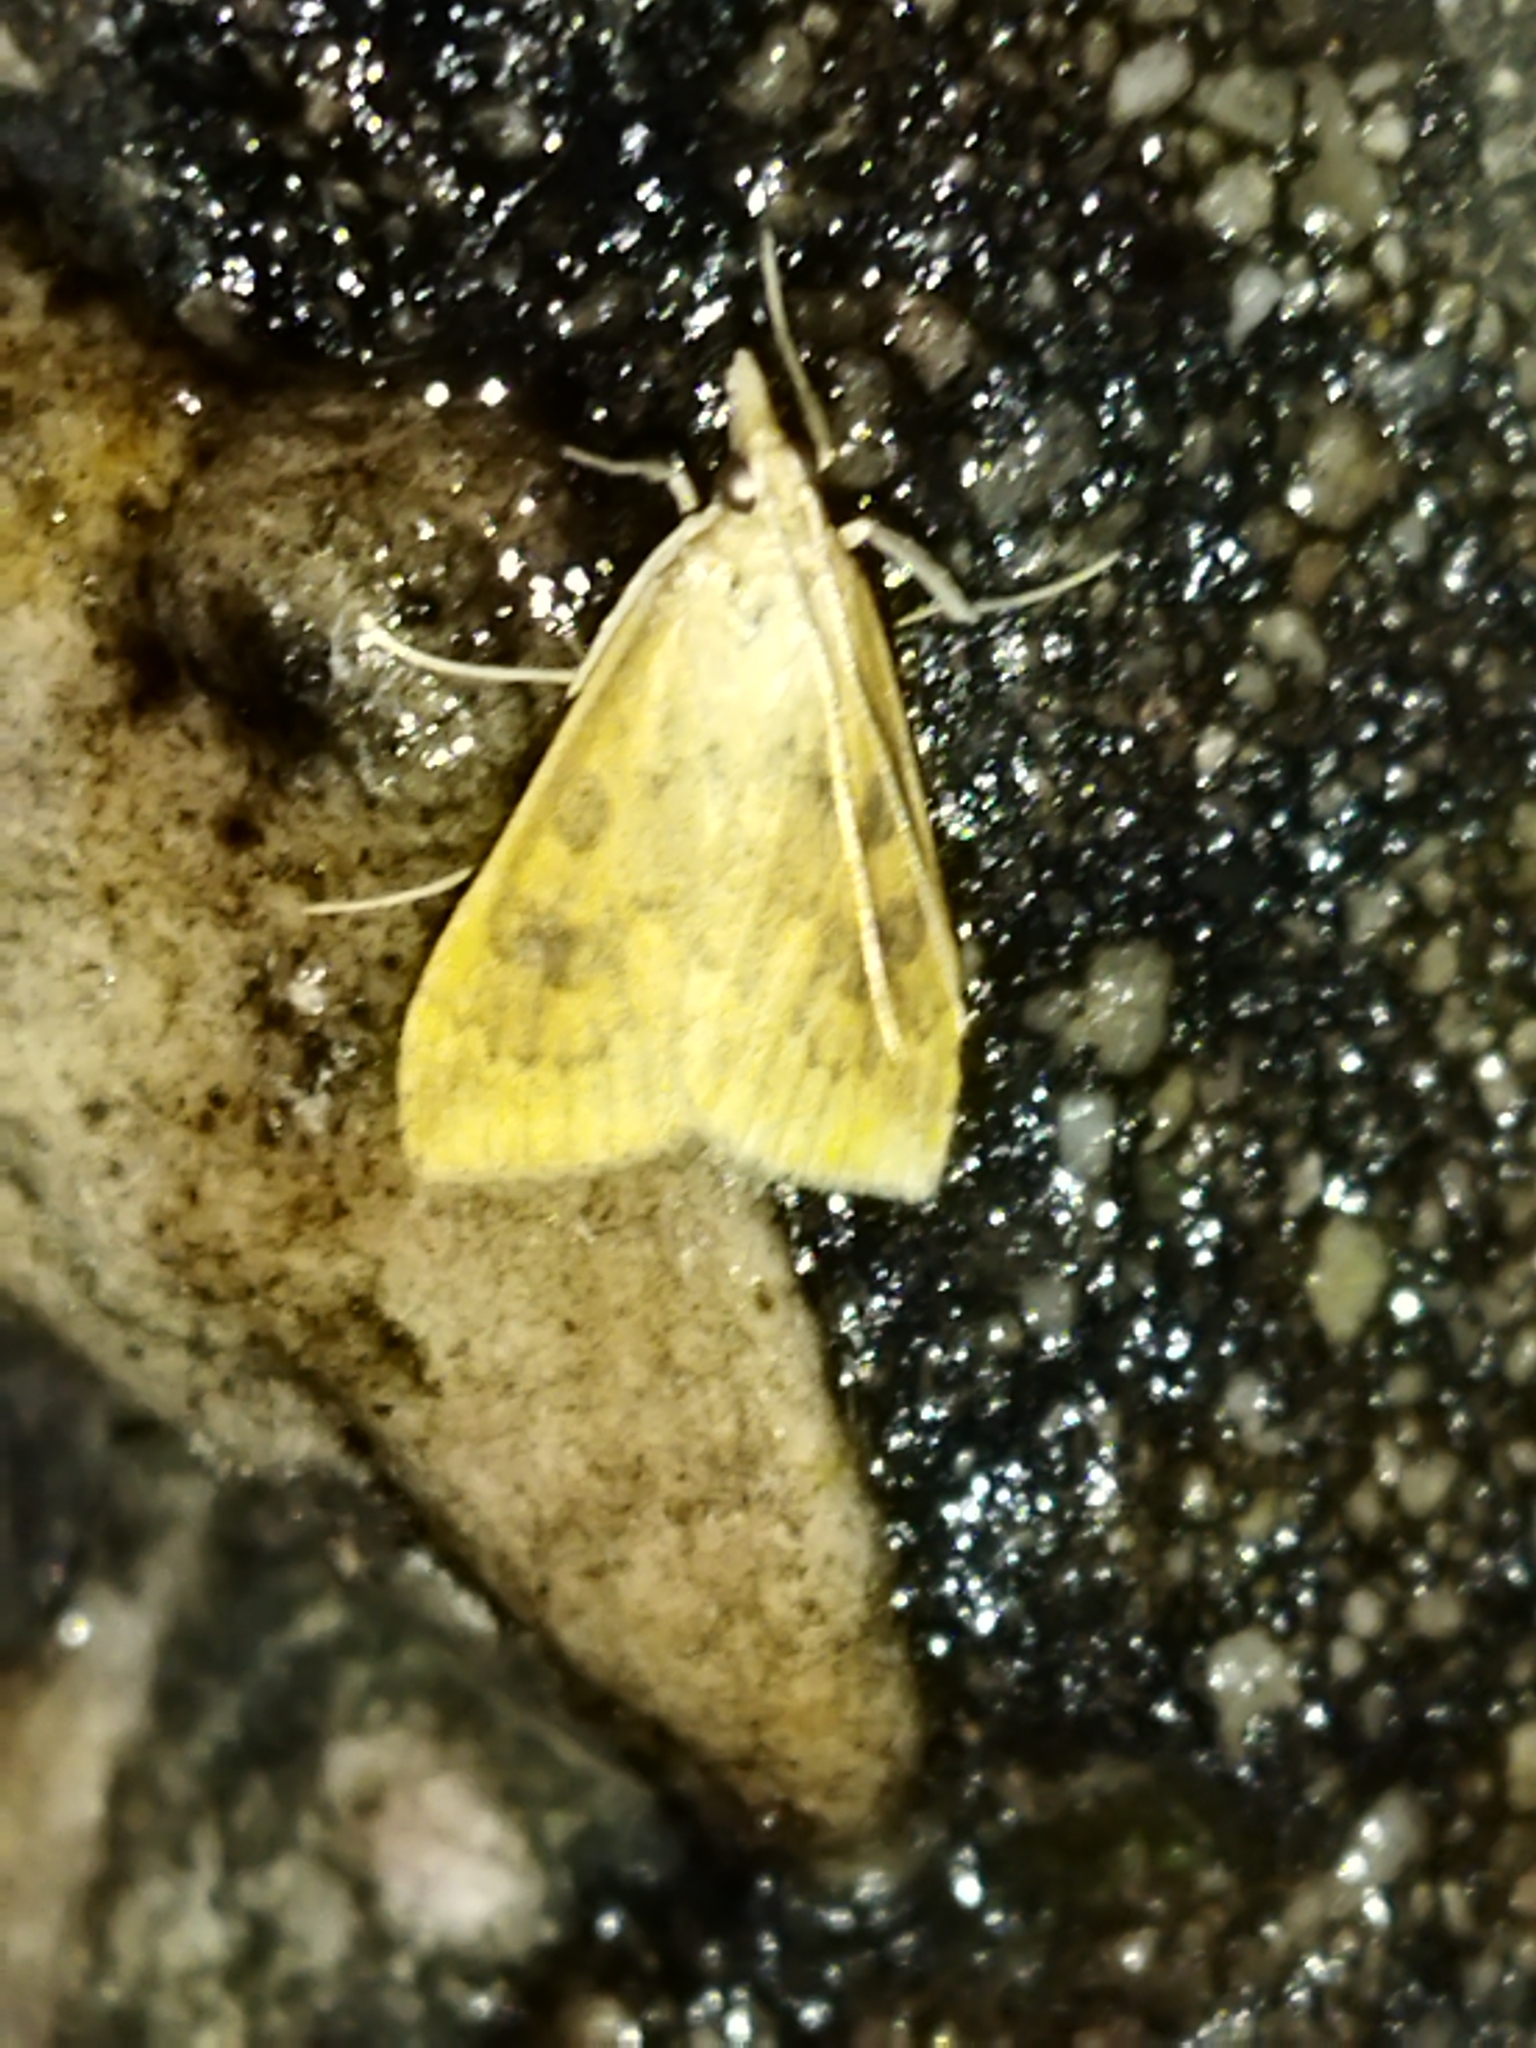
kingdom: Animalia
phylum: Arthropoda
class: Insecta
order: Lepidoptera
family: Crambidae
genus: Udea
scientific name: Udea ferrugalis
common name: Rusty dot
